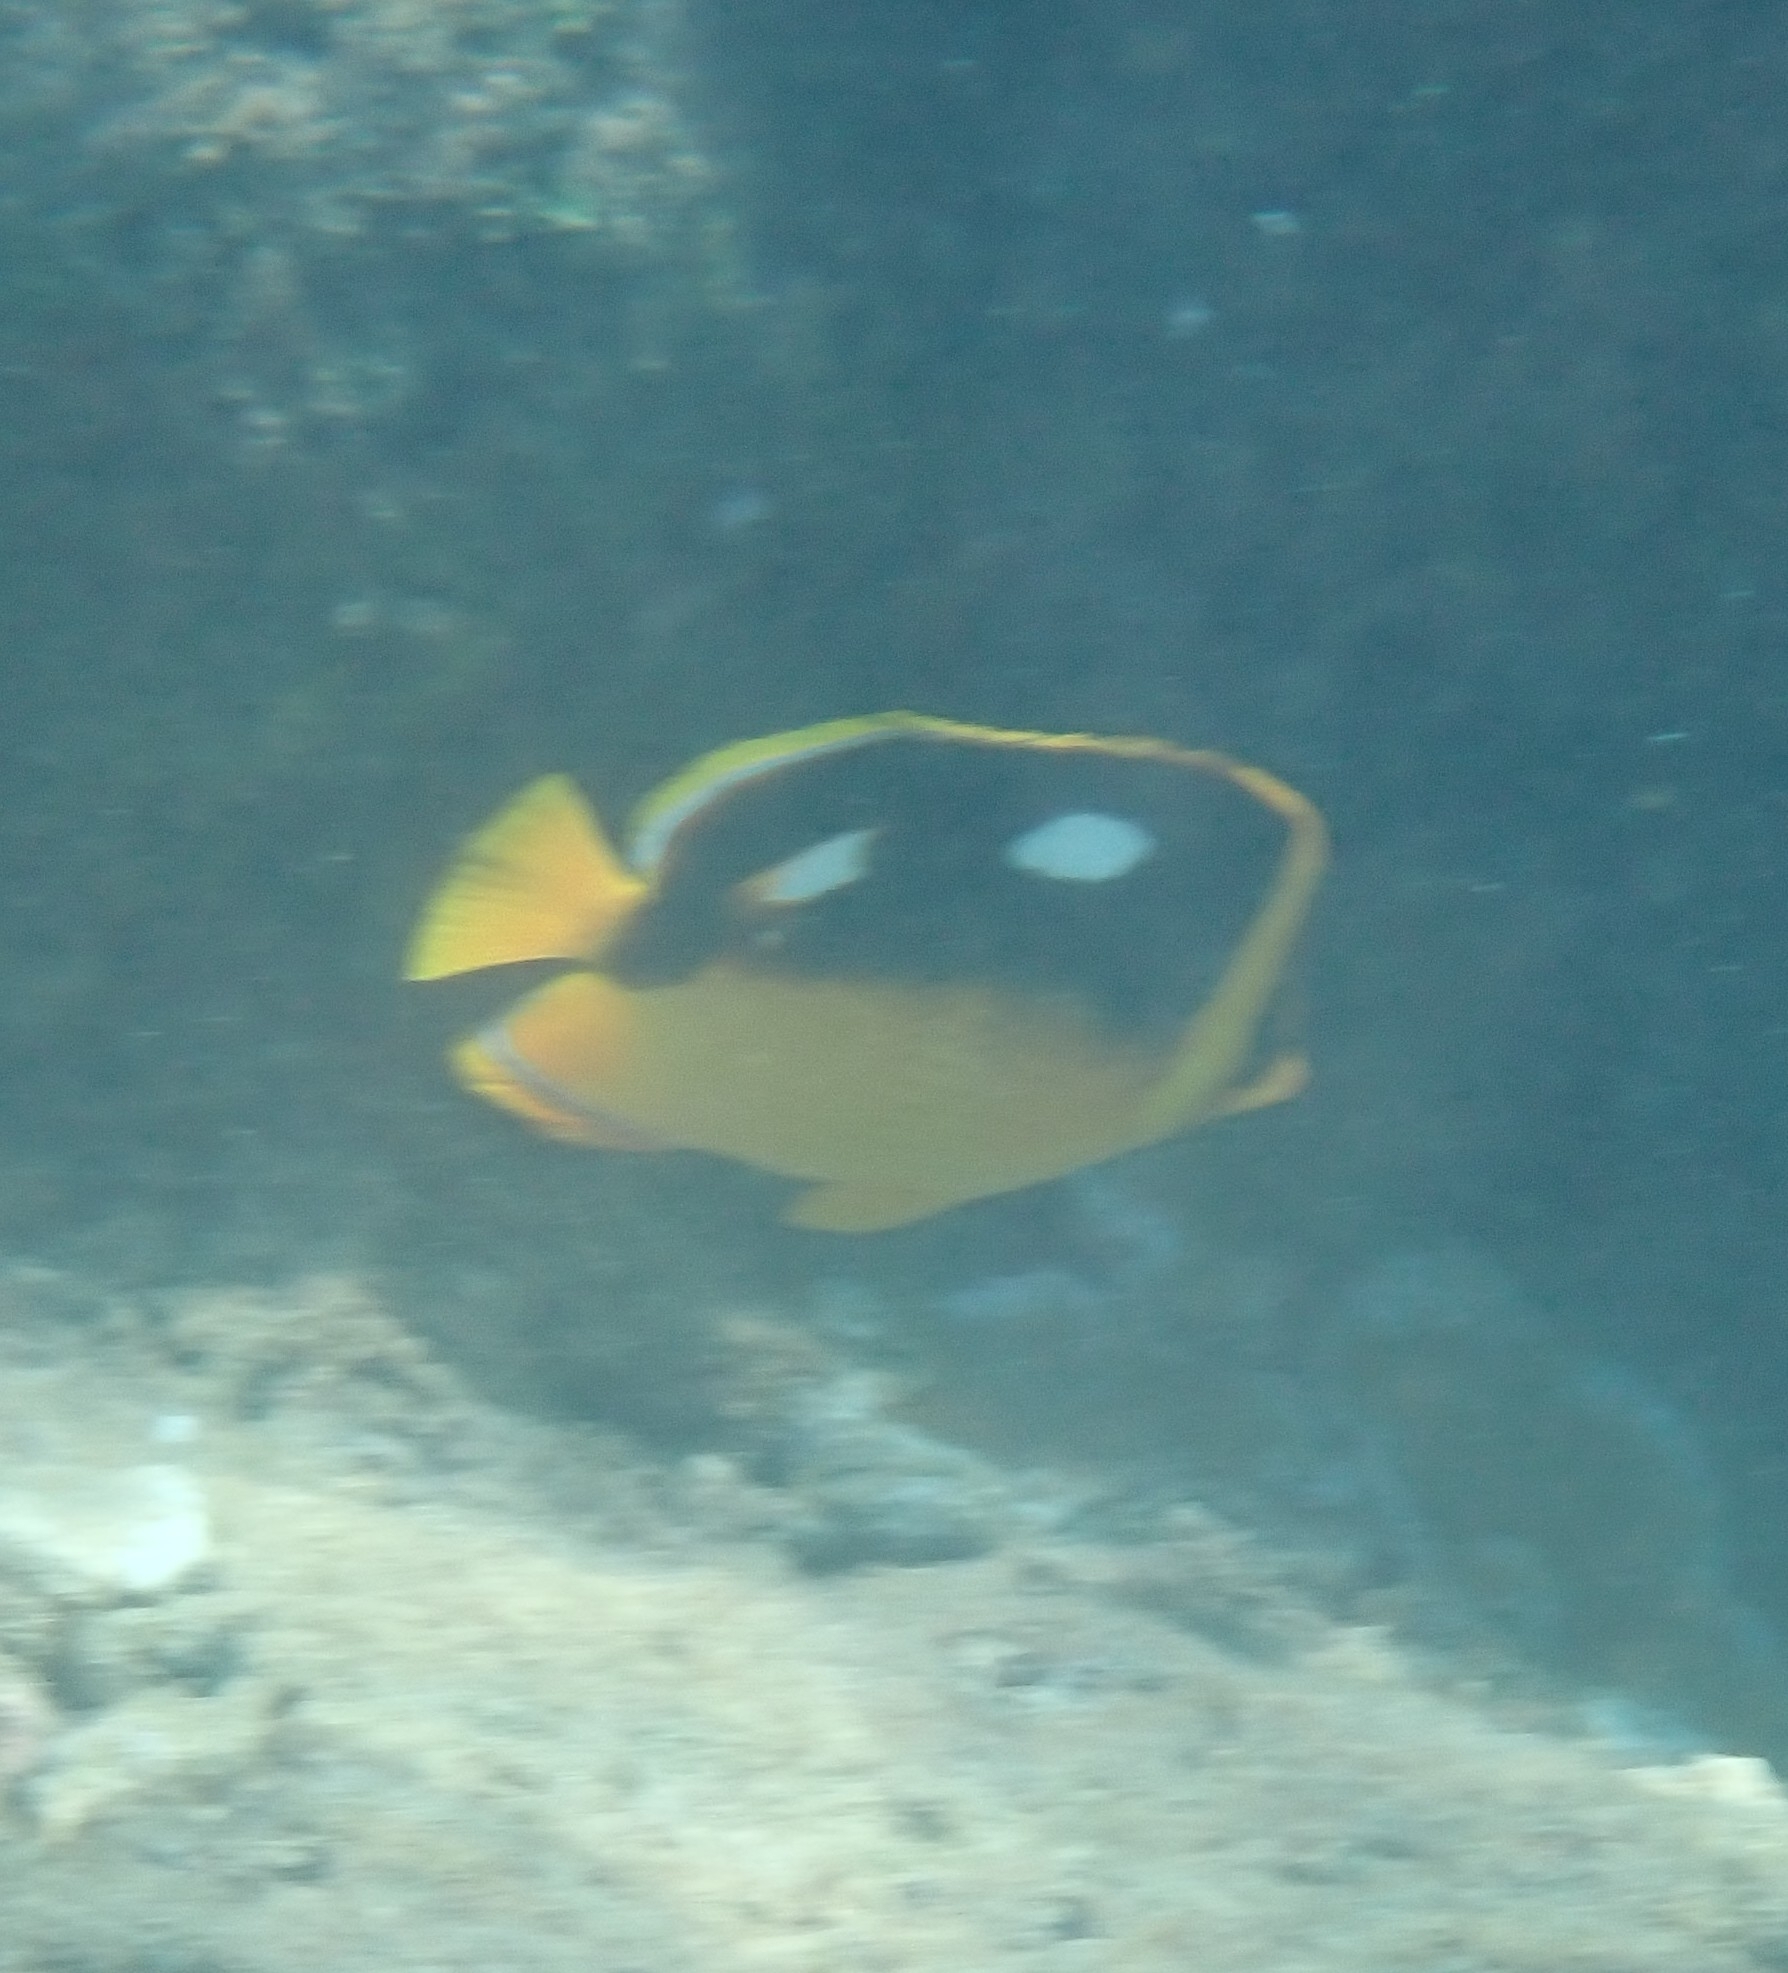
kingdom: Animalia
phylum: Chordata
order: Perciformes
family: Chaetodontidae
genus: Chaetodon
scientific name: Chaetodon quadrimaculatus
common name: Fourspot butterflyfish
